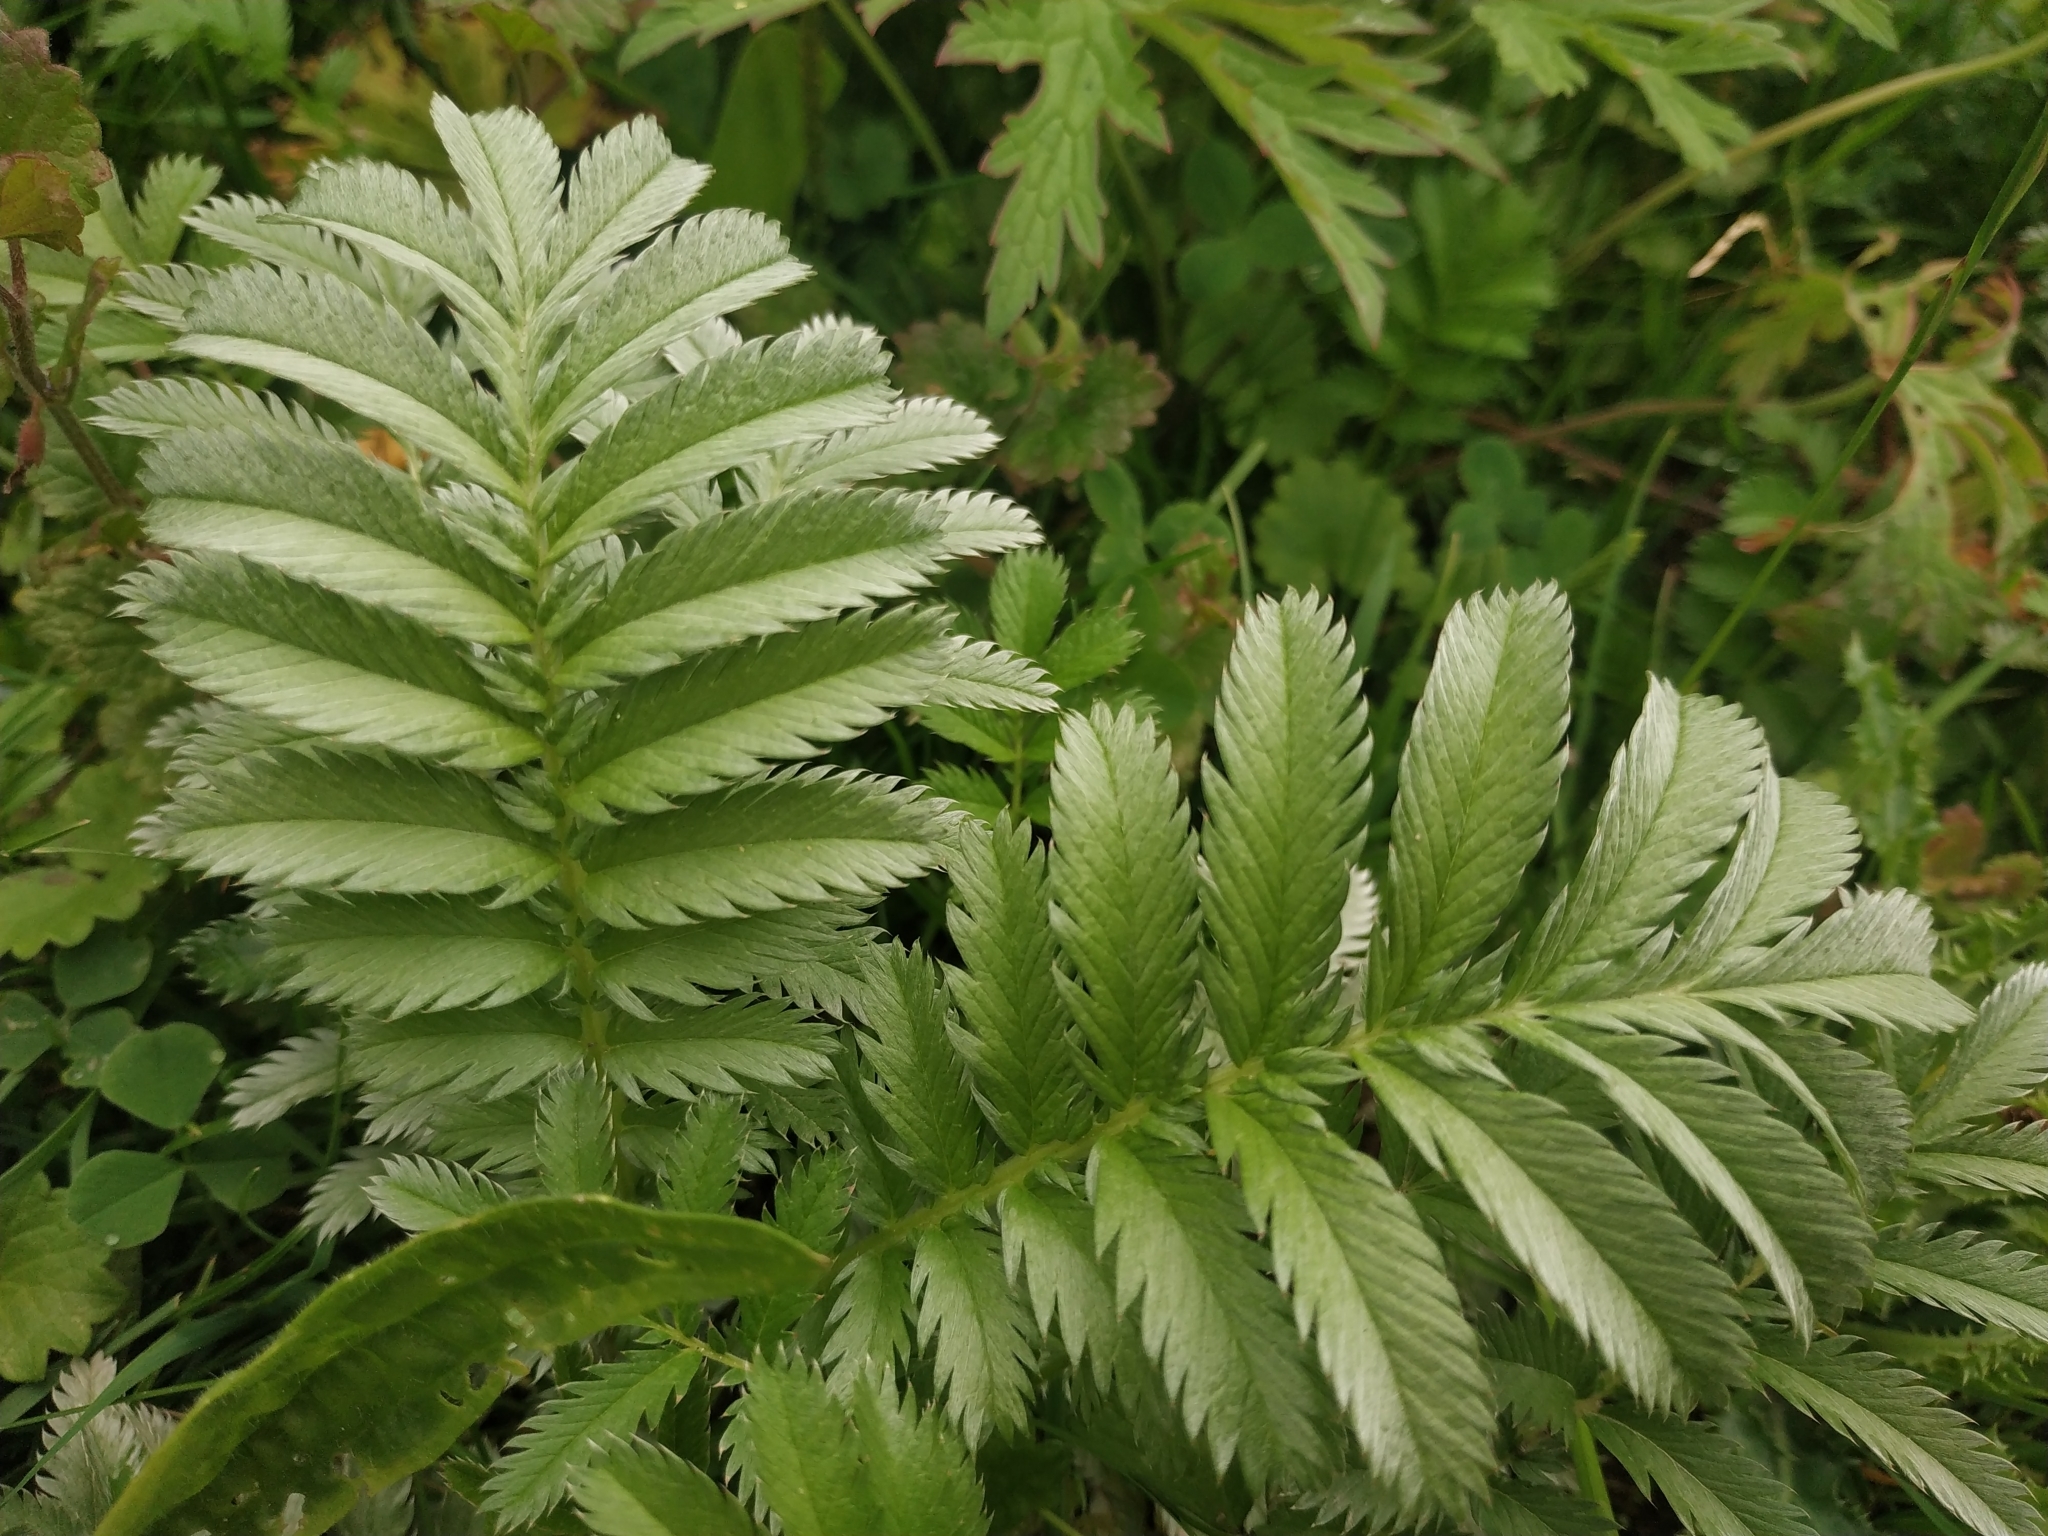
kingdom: Plantae
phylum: Tracheophyta
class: Magnoliopsida
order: Rosales
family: Rosaceae
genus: Argentina
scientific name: Argentina anserina
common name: Common silverweed
